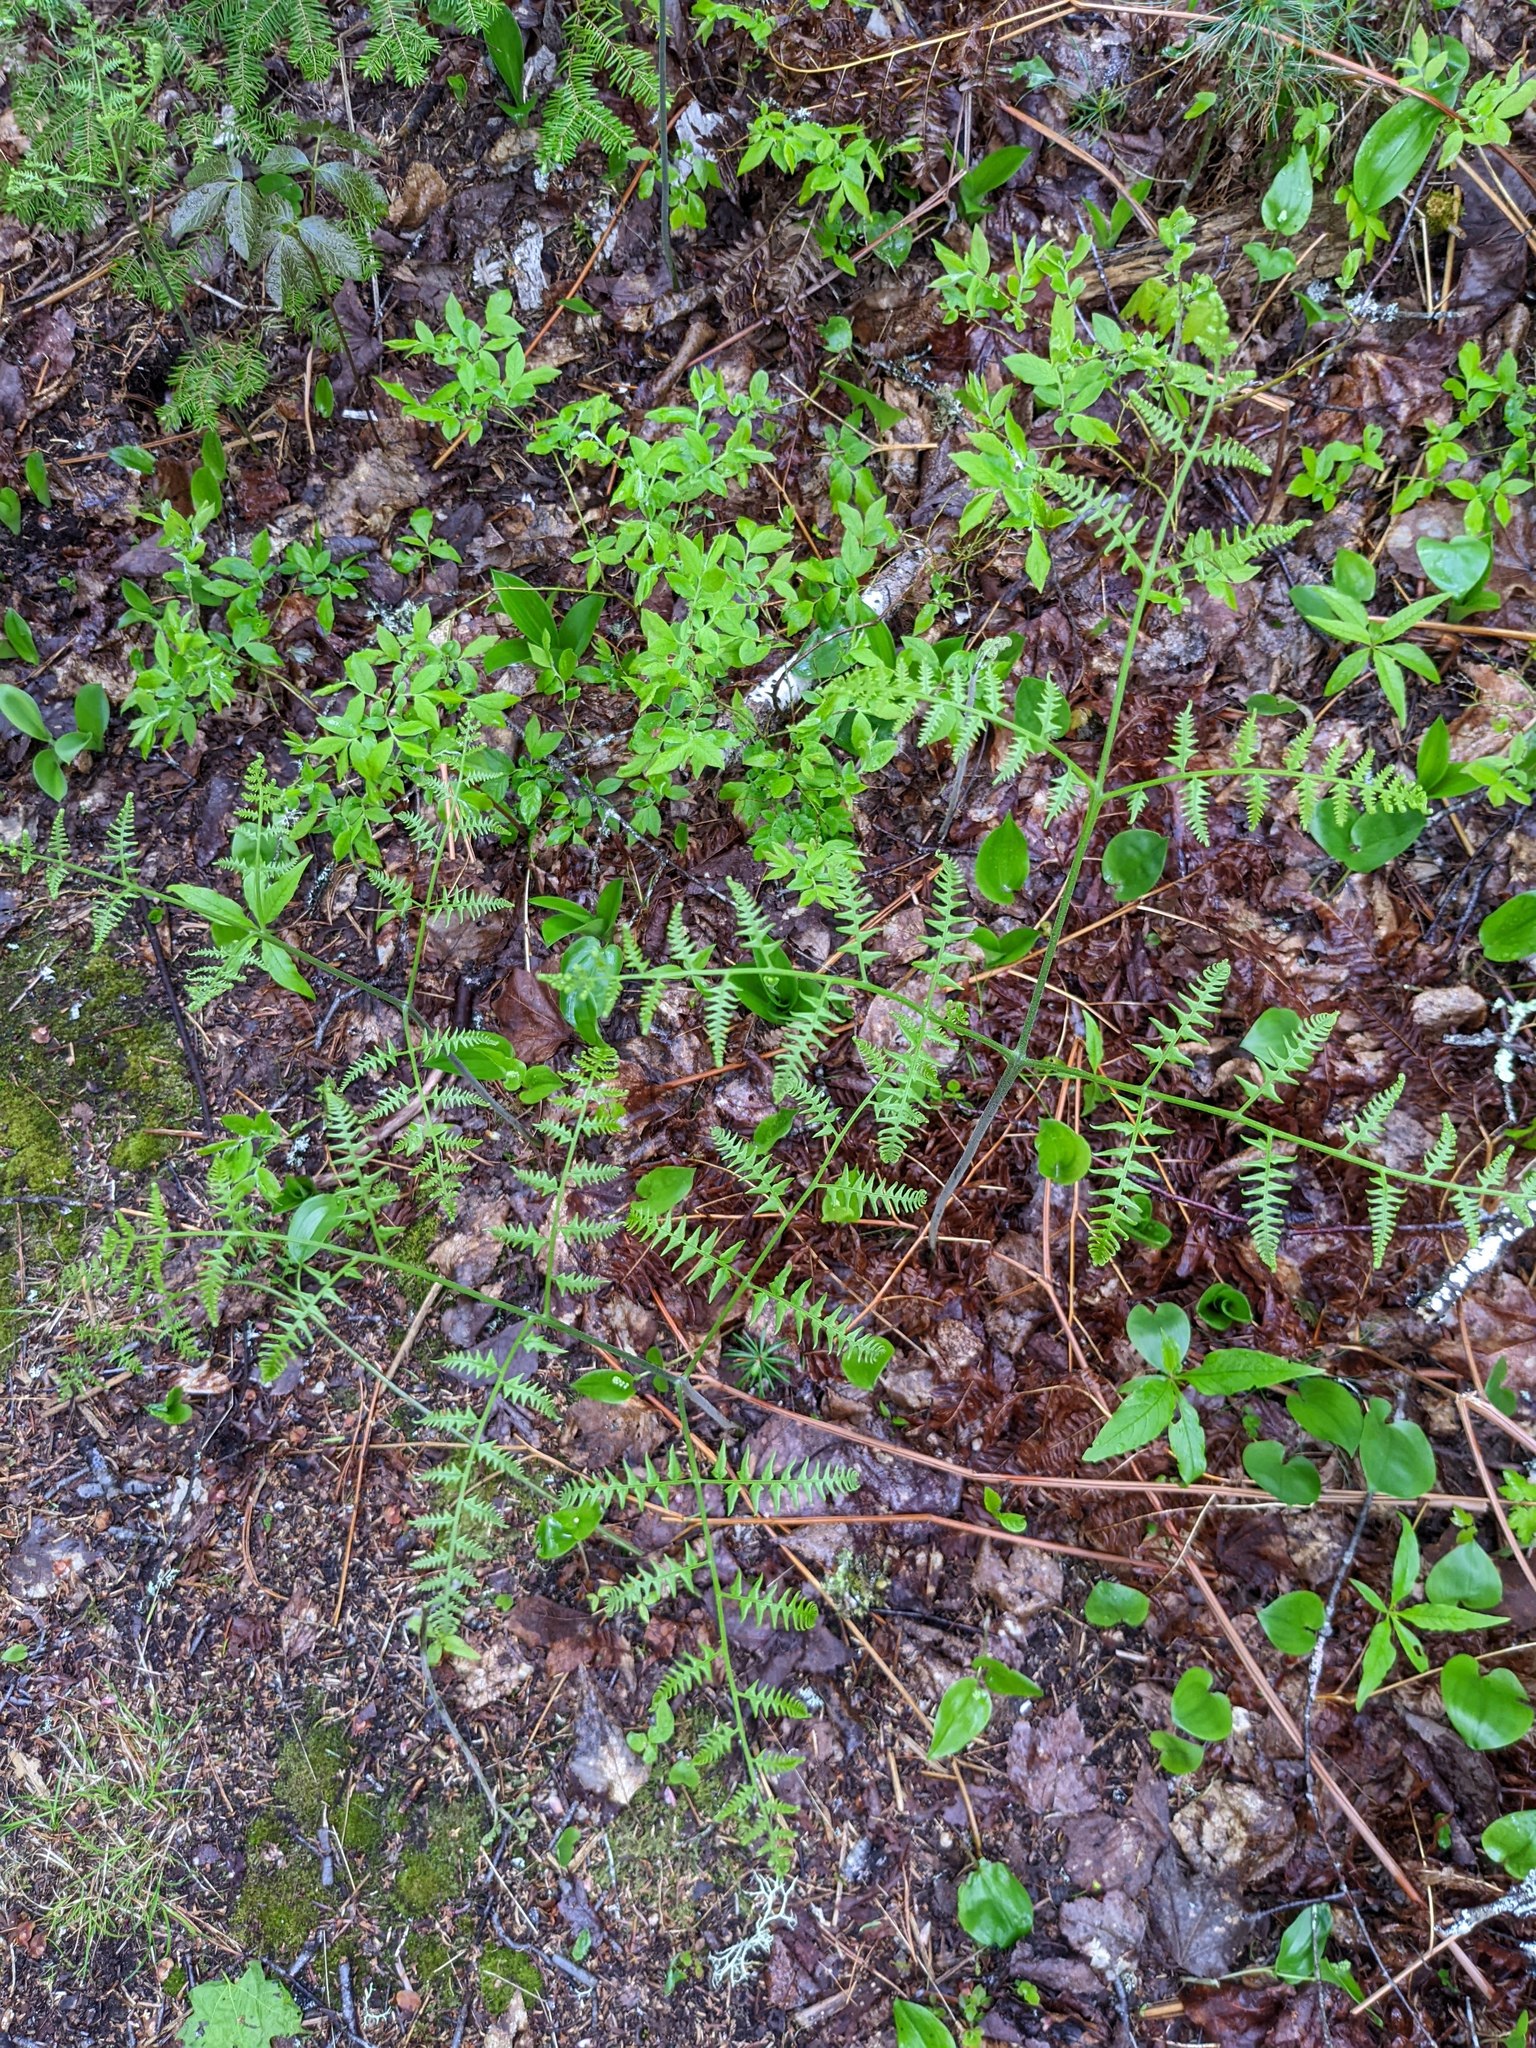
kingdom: Plantae
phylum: Tracheophyta
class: Polypodiopsida
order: Polypodiales
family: Dennstaedtiaceae
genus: Pteridium
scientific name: Pteridium aquilinum
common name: Bracken
